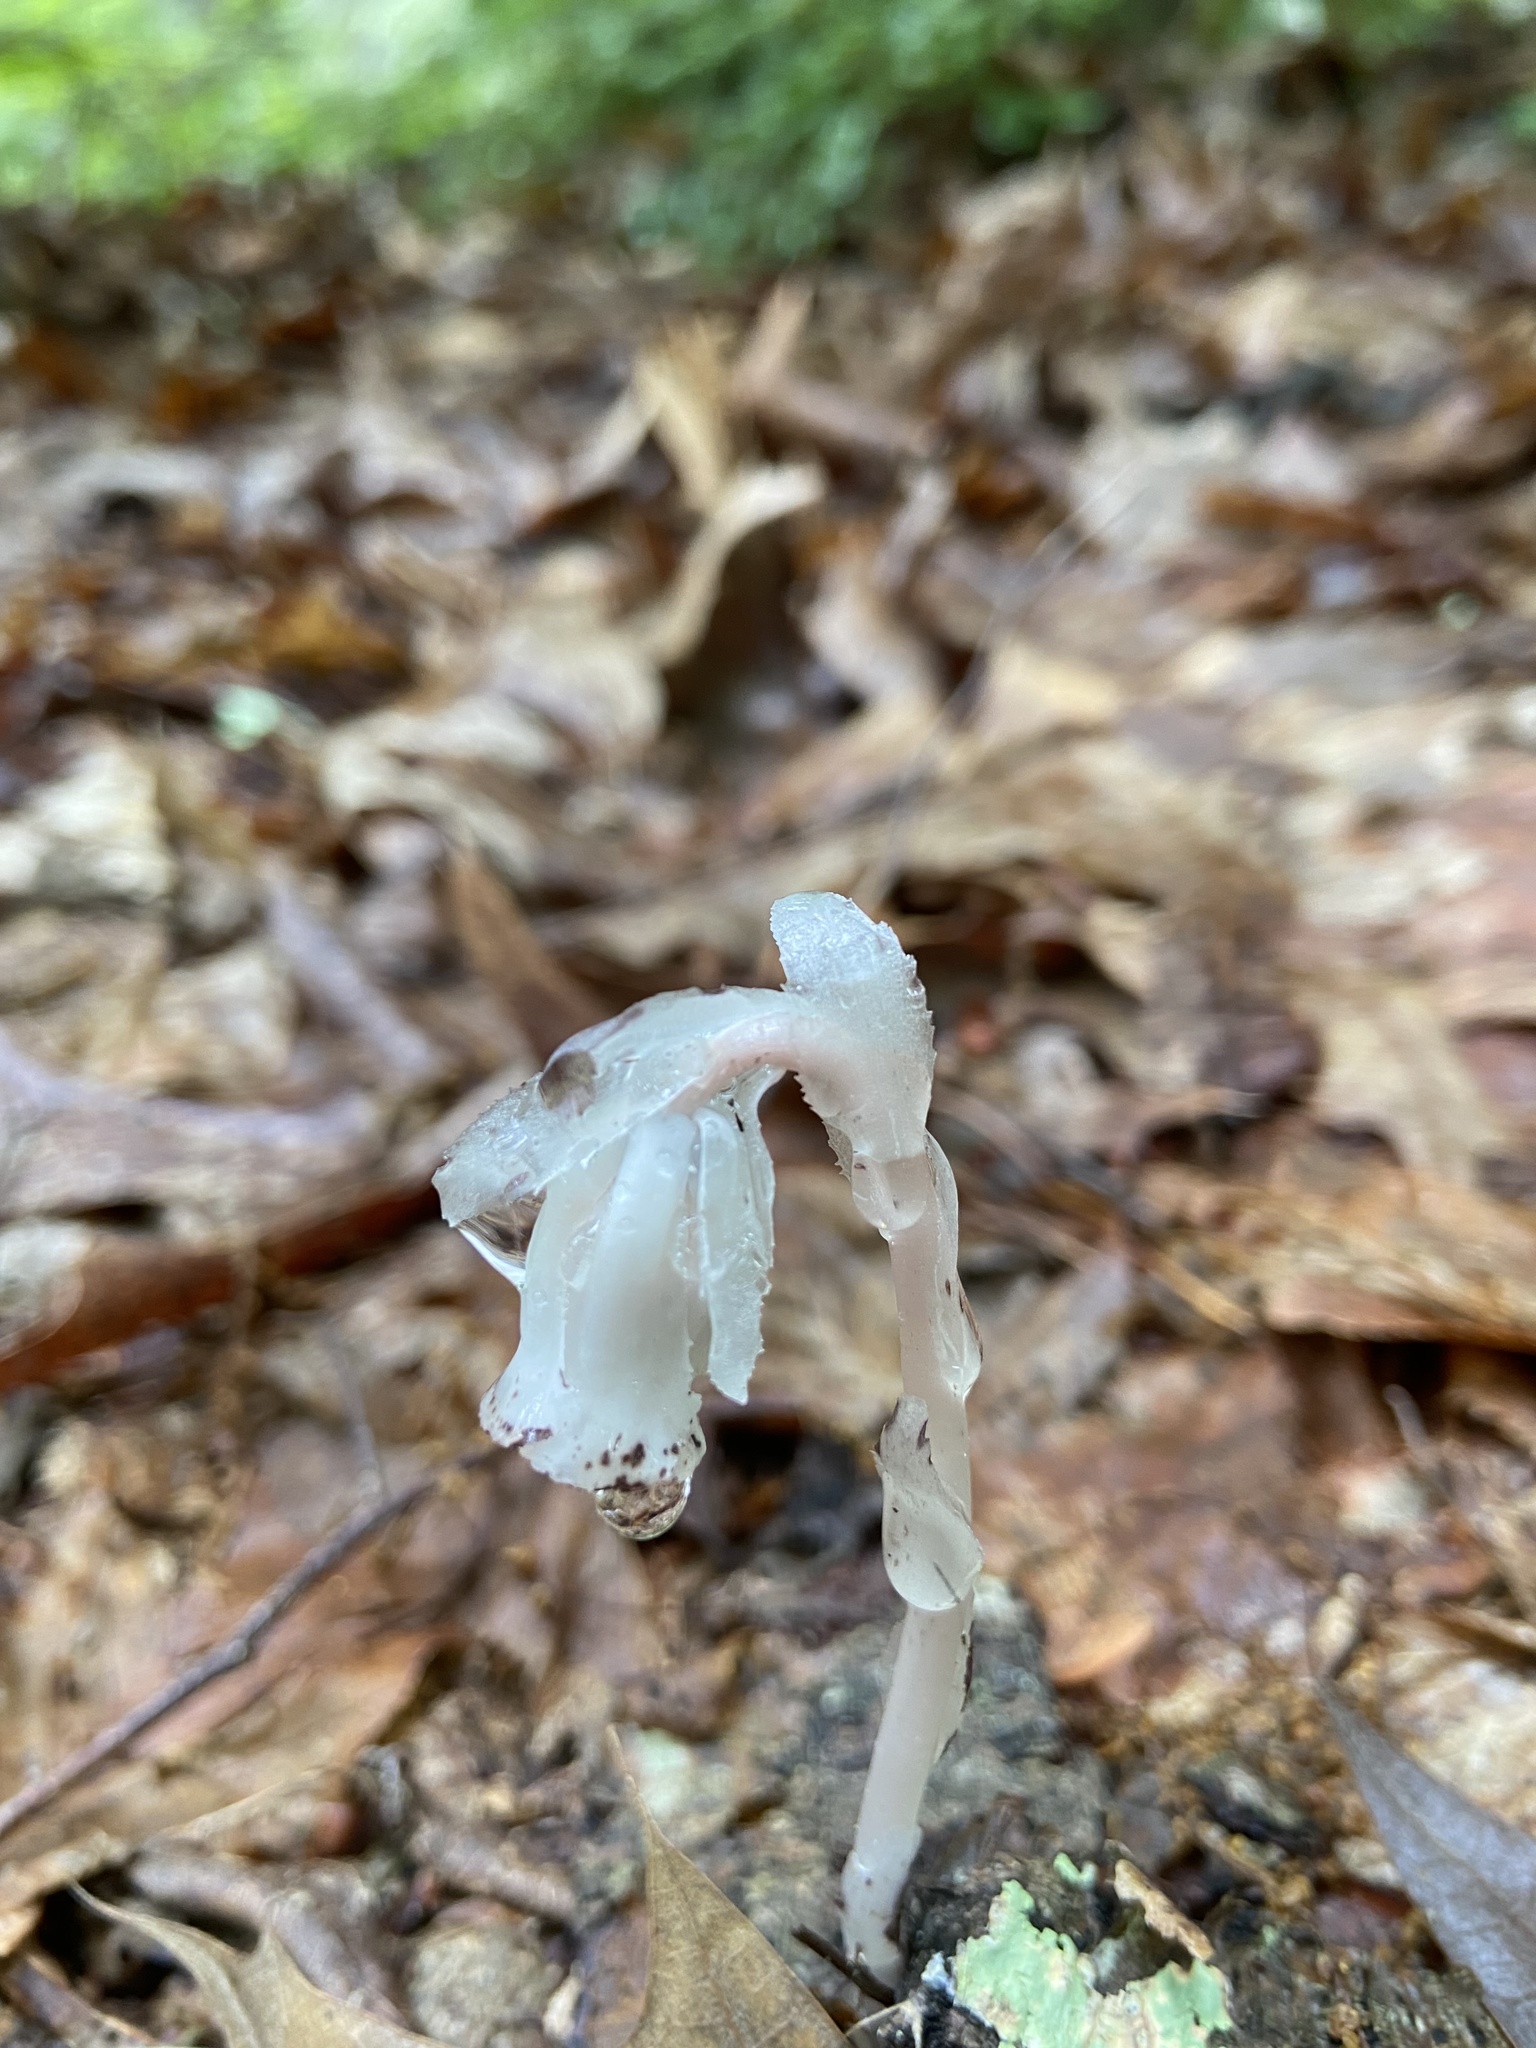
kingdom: Plantae
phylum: Tracheophyta
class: Magnoliopsida
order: Ericales
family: Ericaceae
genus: Monotropa
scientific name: Monotropa uniflora
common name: Convulsion root
